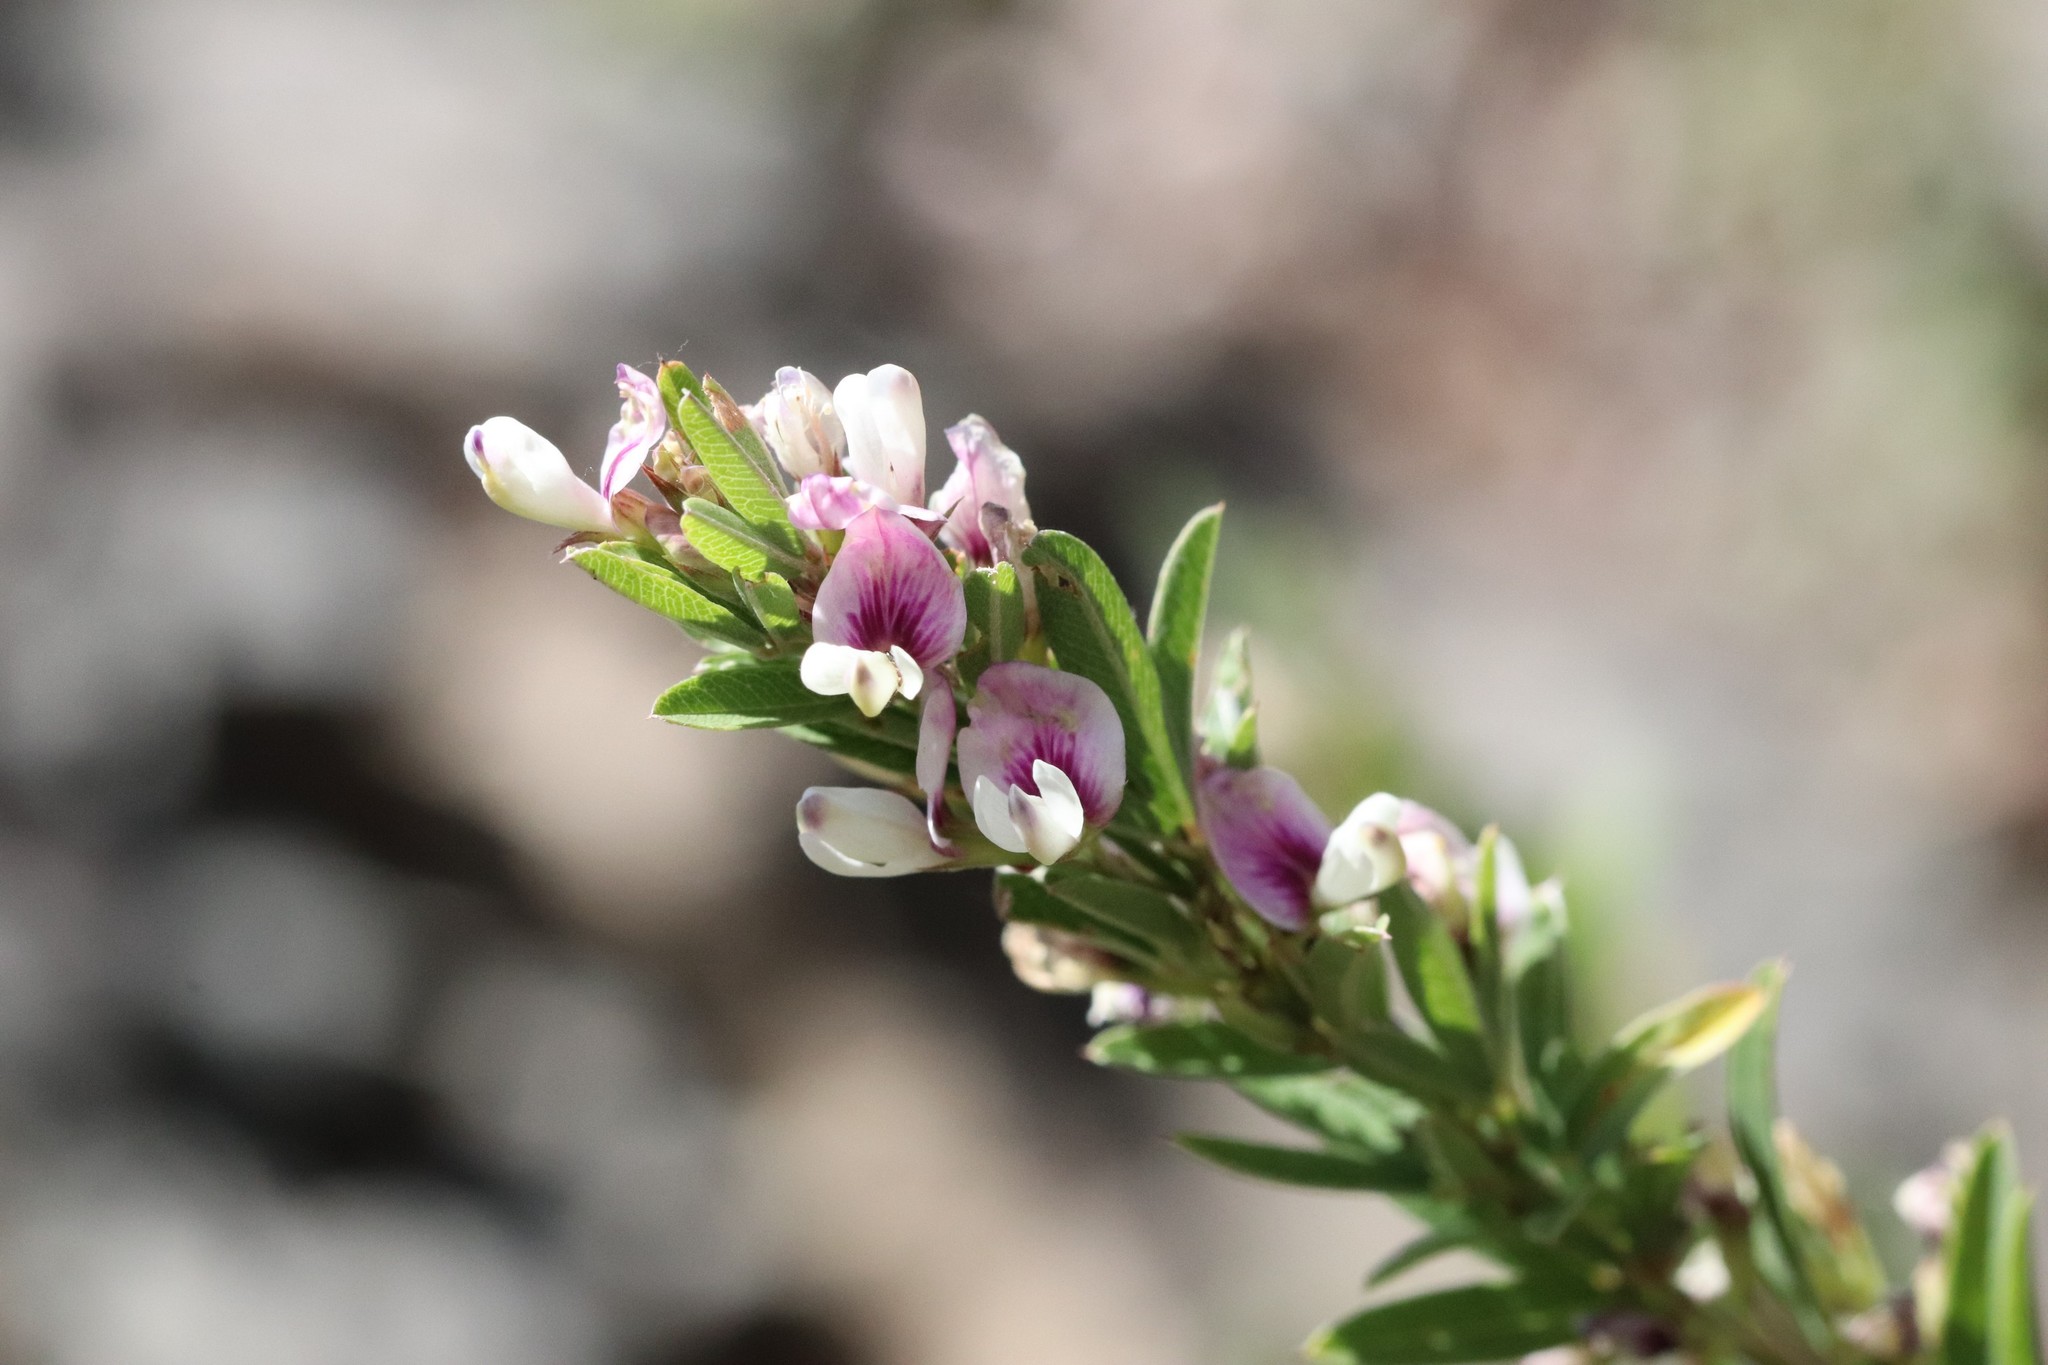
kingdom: Plantae
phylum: Tracheophyta
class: Magnoliopsida
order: Fabales
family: Fabaceae
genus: Lespedeza
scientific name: Lespedeza juncea
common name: Siberian lespedeza
